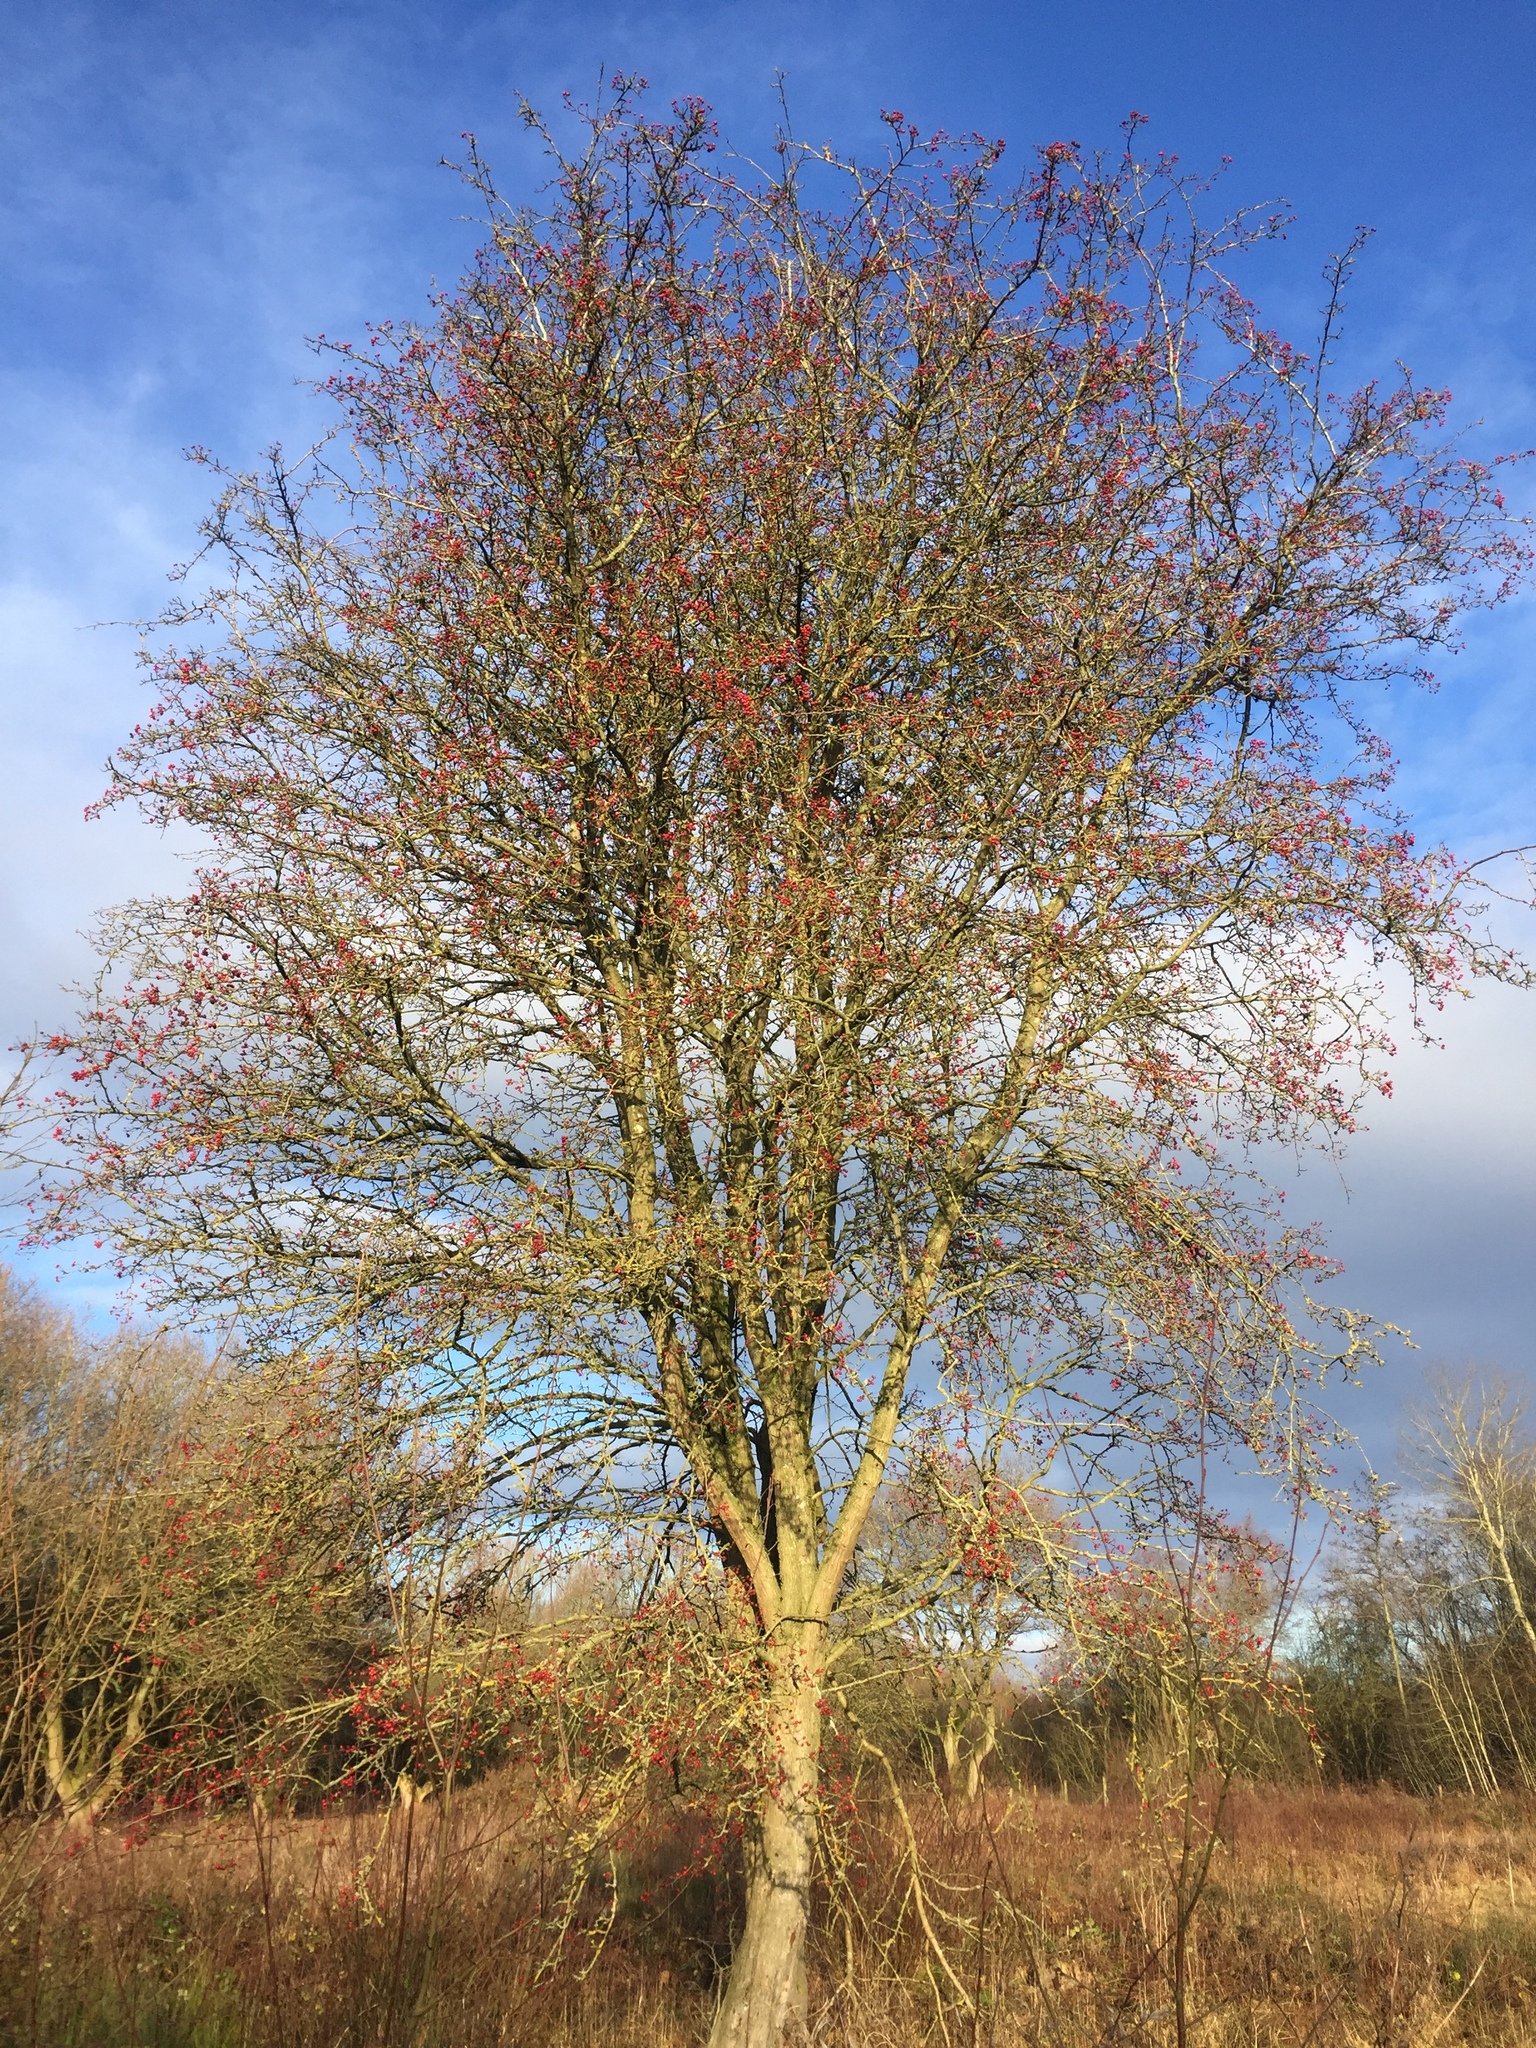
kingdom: Plantae
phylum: Tracheophyta
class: Magnoliopsida
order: Rosales
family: Rosaceae
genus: Crataegus
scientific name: Crataegus monogyna
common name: Hawthorn
